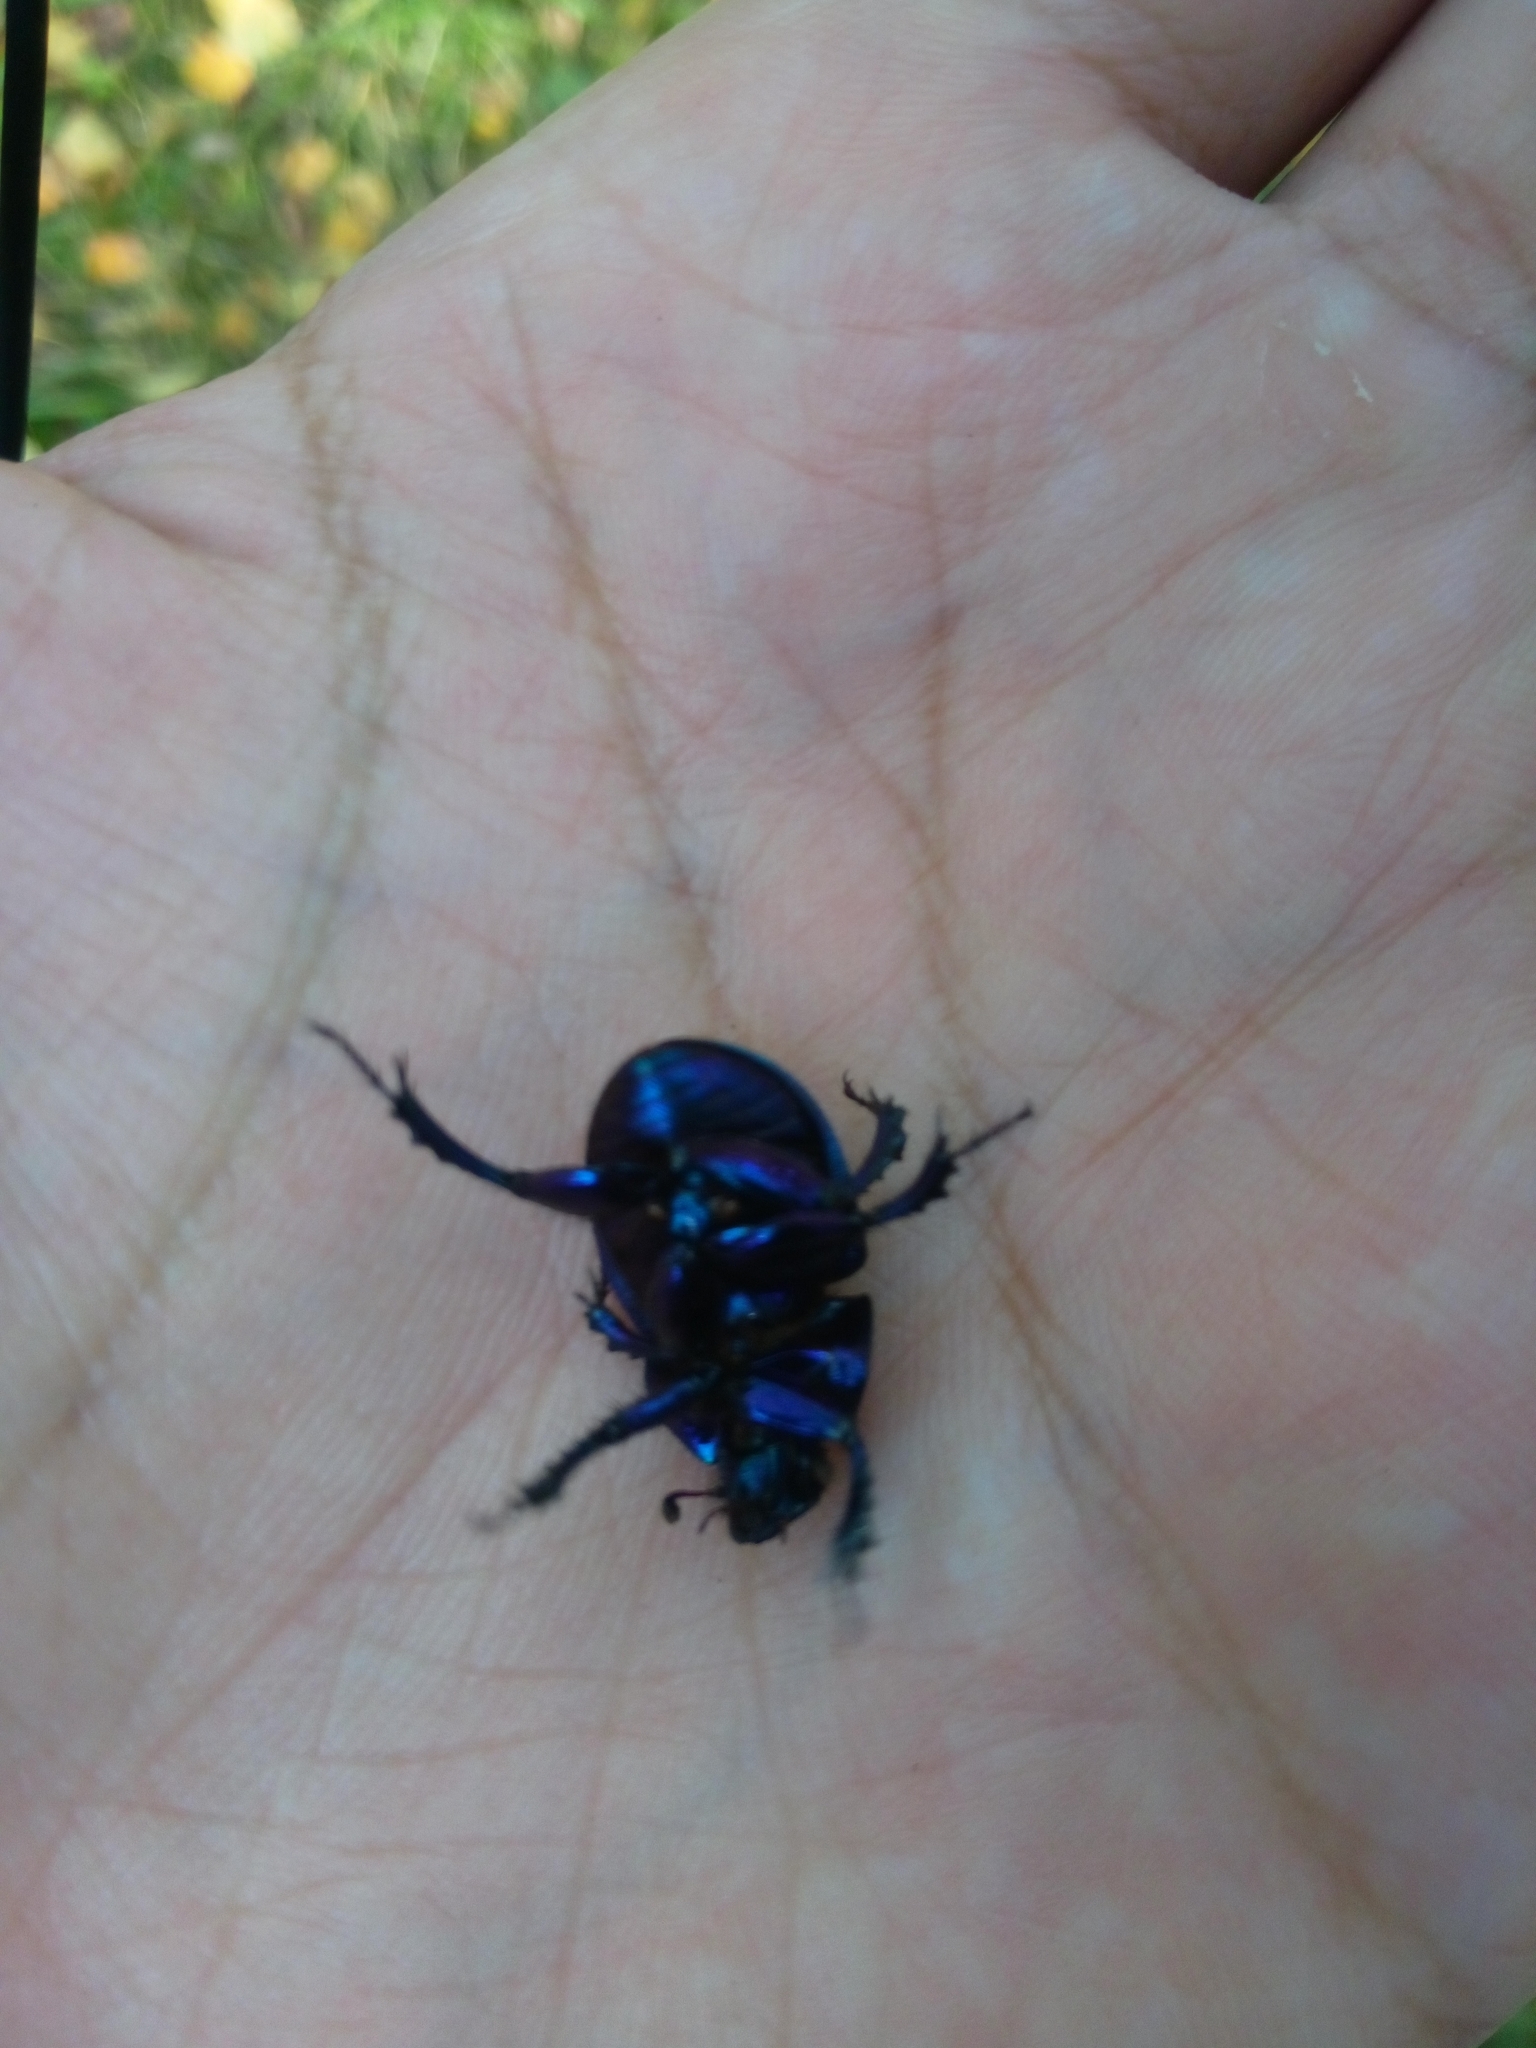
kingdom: Animalia
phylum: Arthropoda
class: Insecta
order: Coleoptera
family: Geotrupidae
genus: Anoplotrupes
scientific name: Anoplotrupes stercorosus
